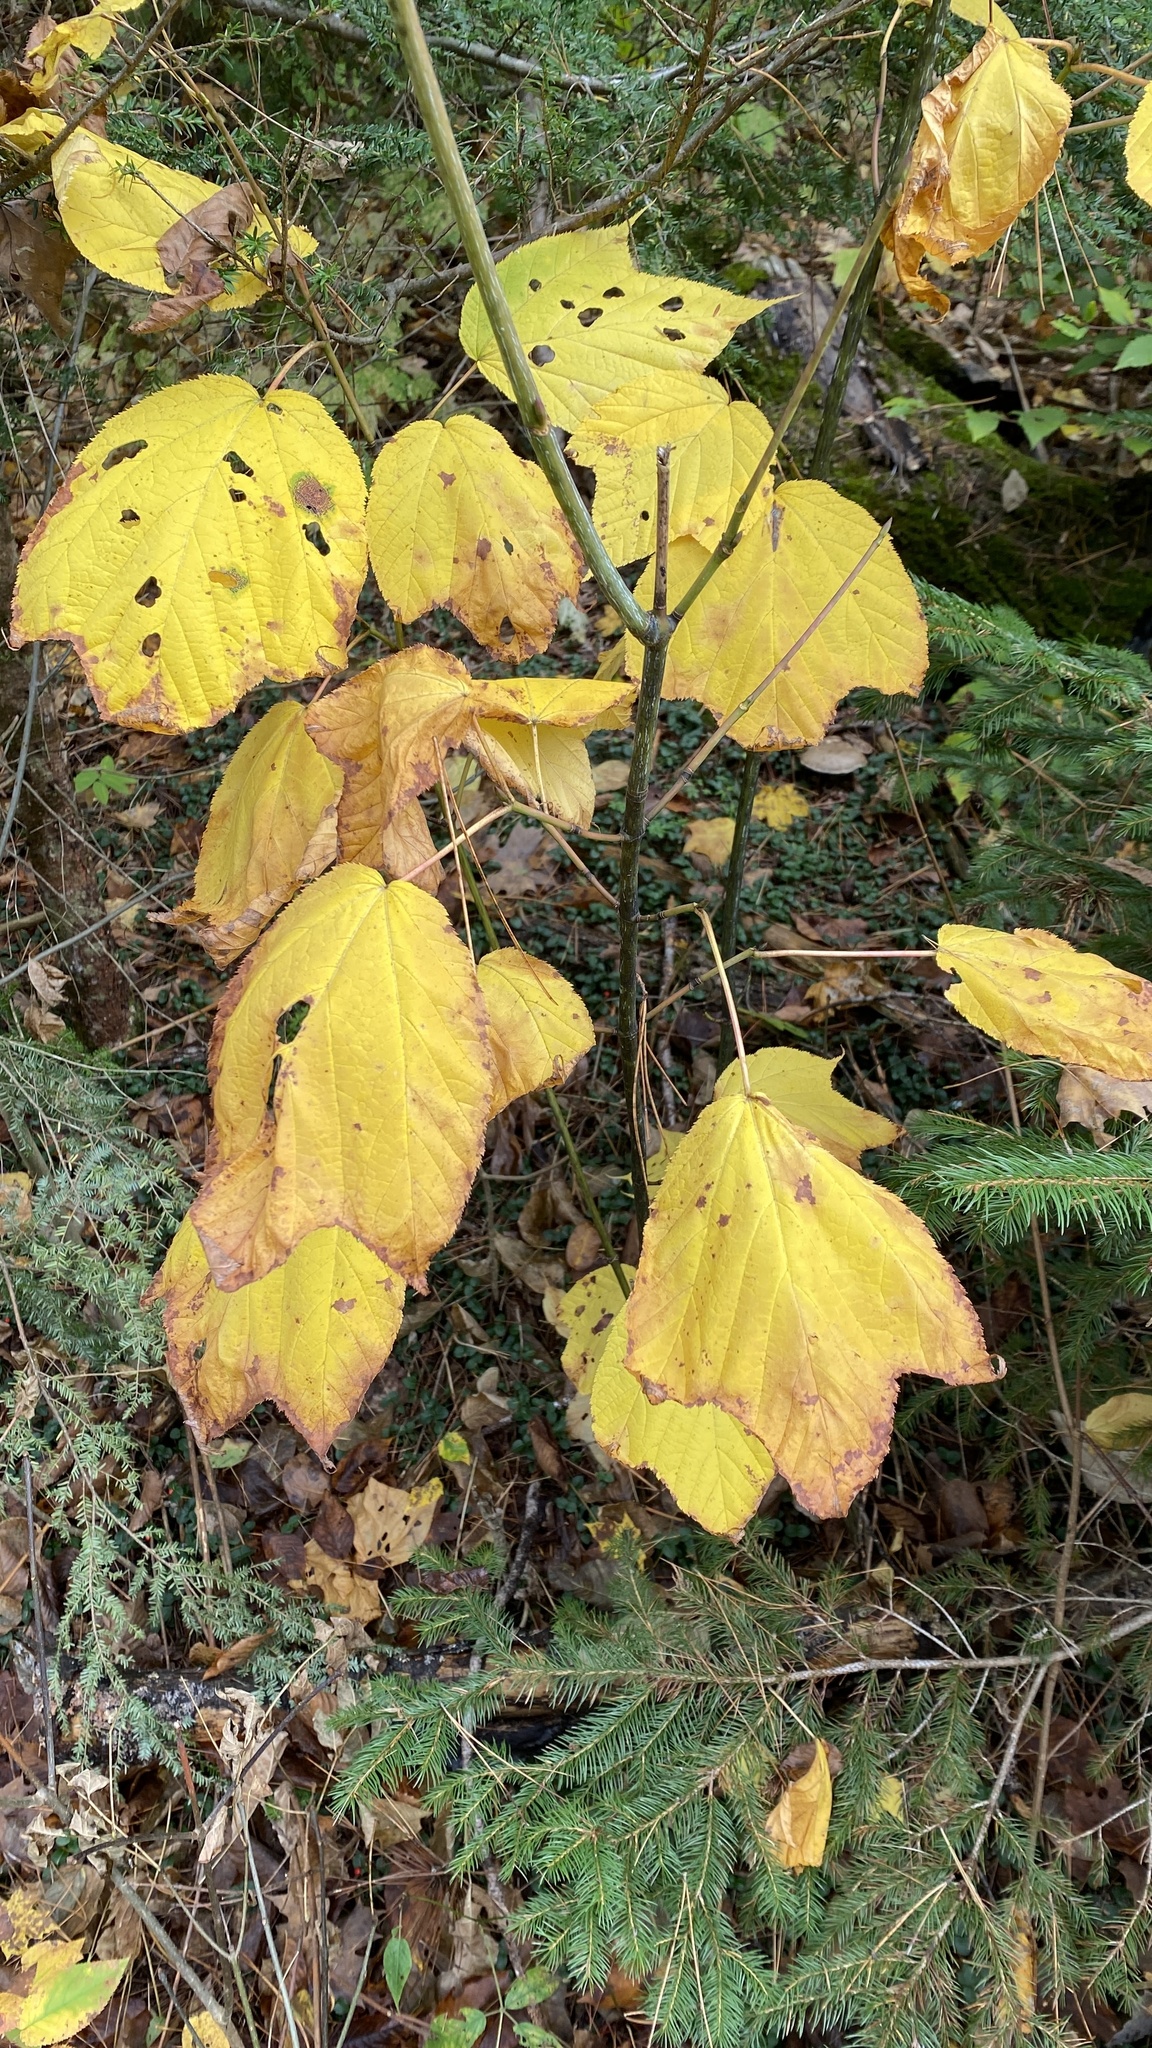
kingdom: Plantae
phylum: Tracheophyta
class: Magnoliopsida
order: Sapindales
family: Sapindaceae
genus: Acer
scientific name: Acer pensylvanicum
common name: Moosewood
